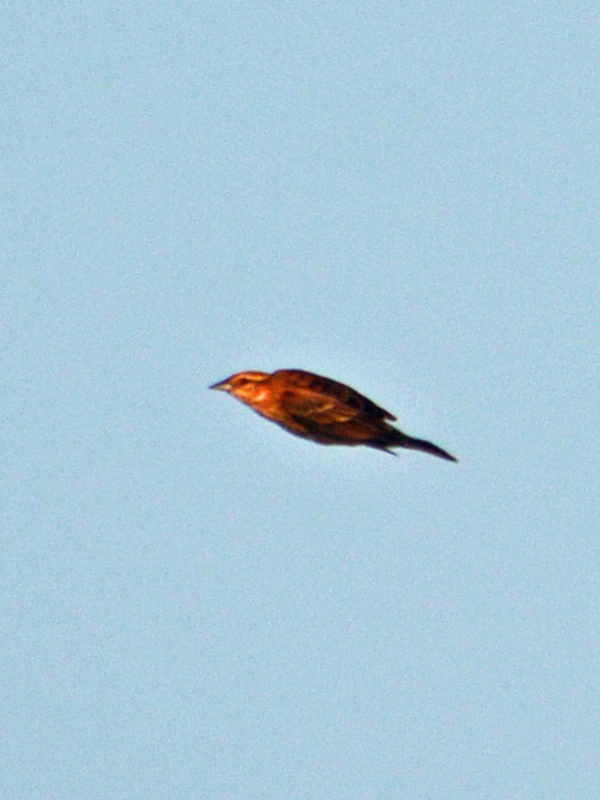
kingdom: Animalia
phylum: Chordata
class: Aves
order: Passeriformes
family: Icteridae
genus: Agelaius
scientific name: Agelaius phoeniceus
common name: Red-winged blackbird
